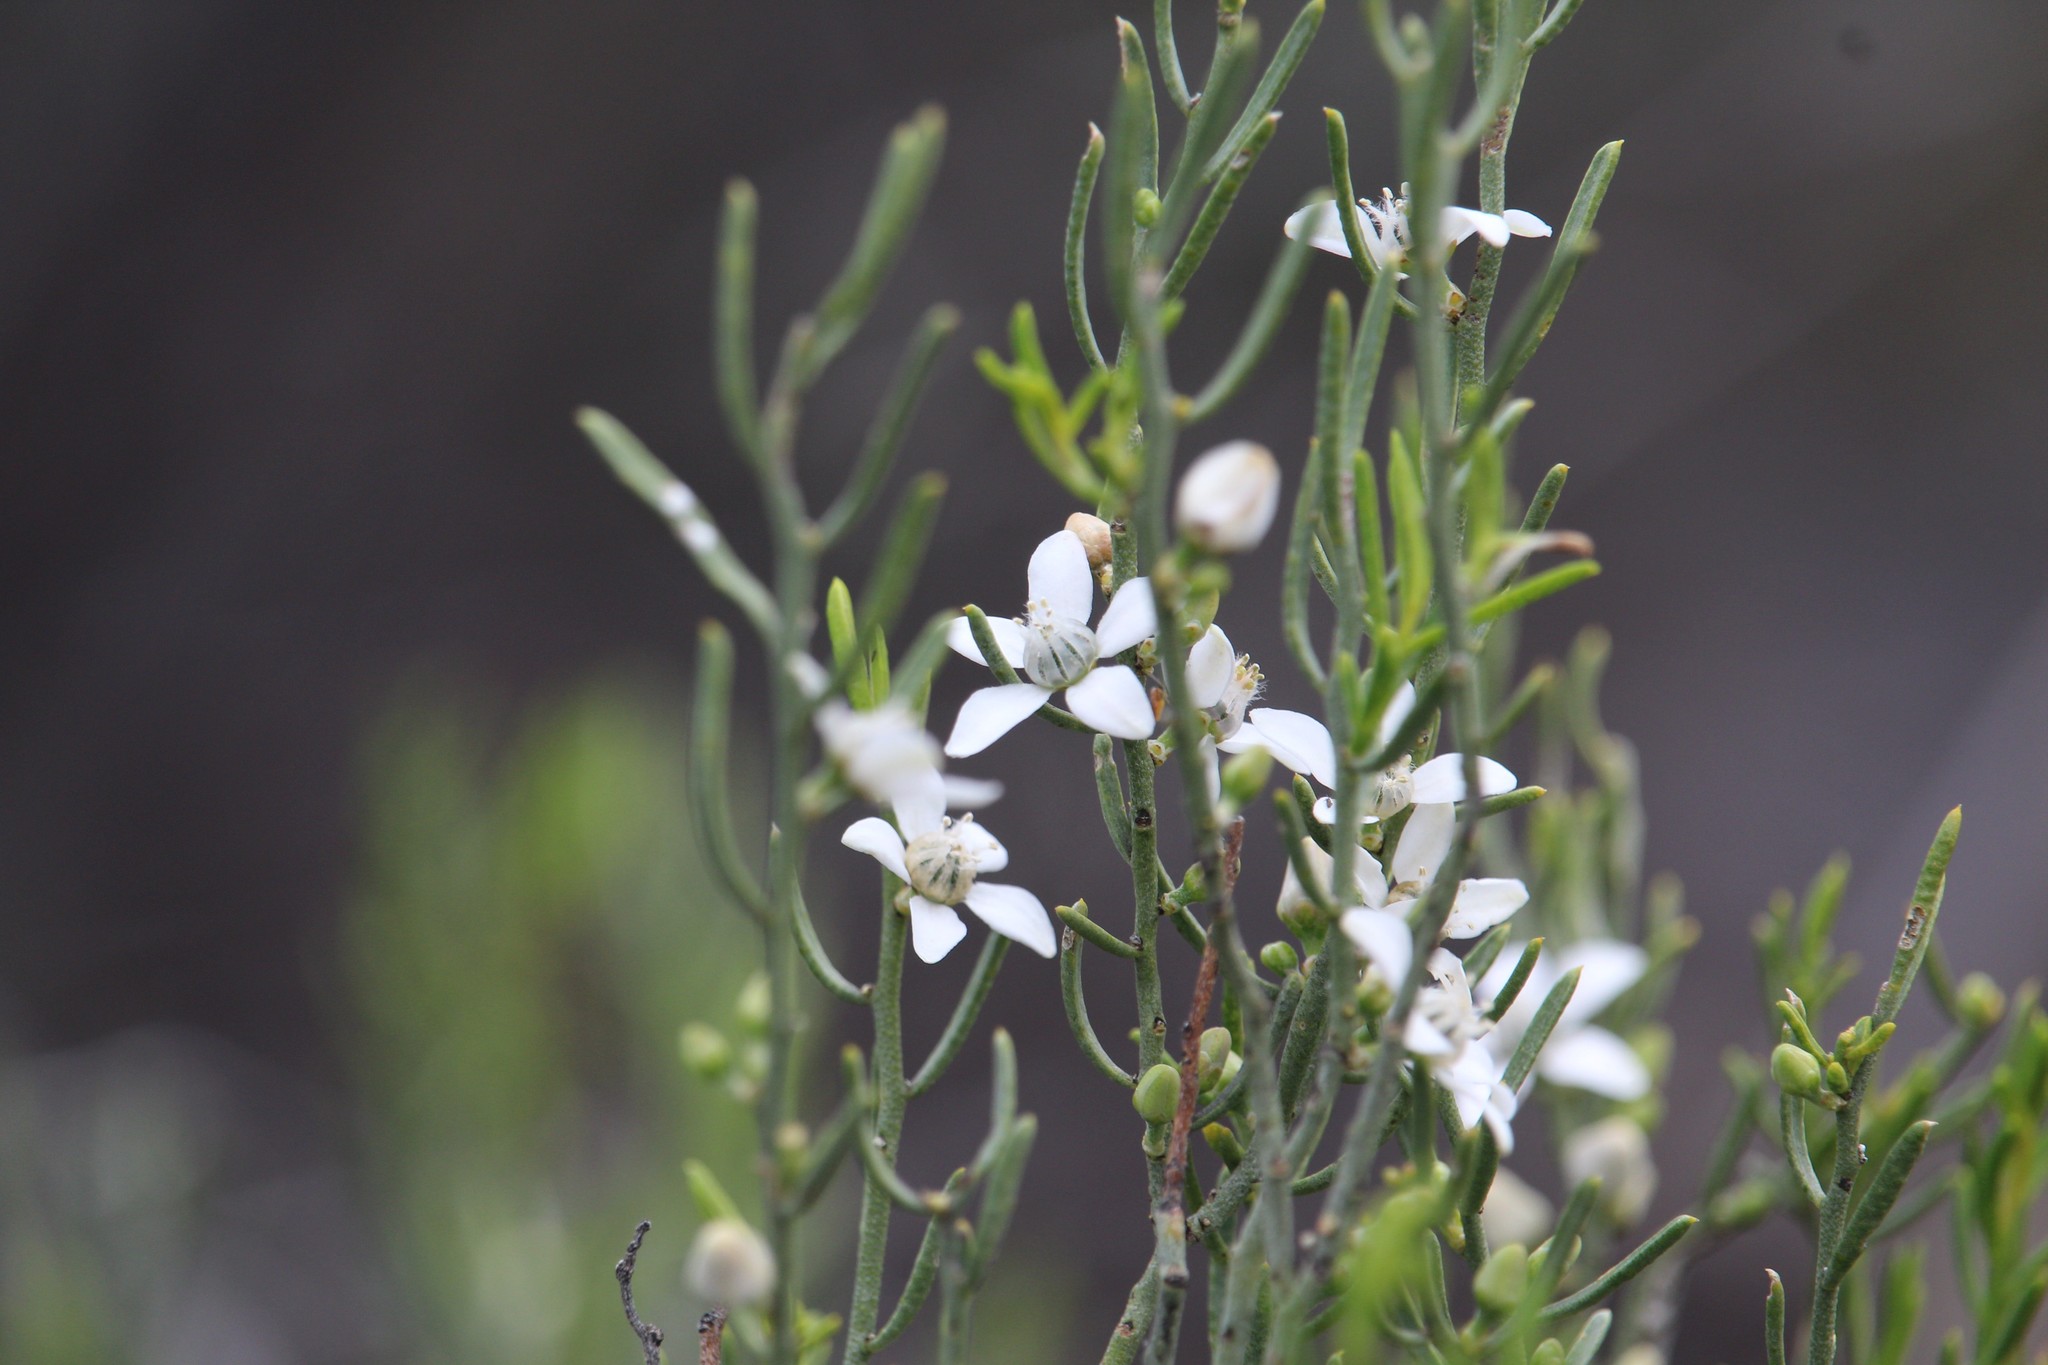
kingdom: Plantae
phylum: Tracheophyta
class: Magnoliopsida
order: Sapindales
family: Rutaceae
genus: Philotheca
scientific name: Philotheca brucei
